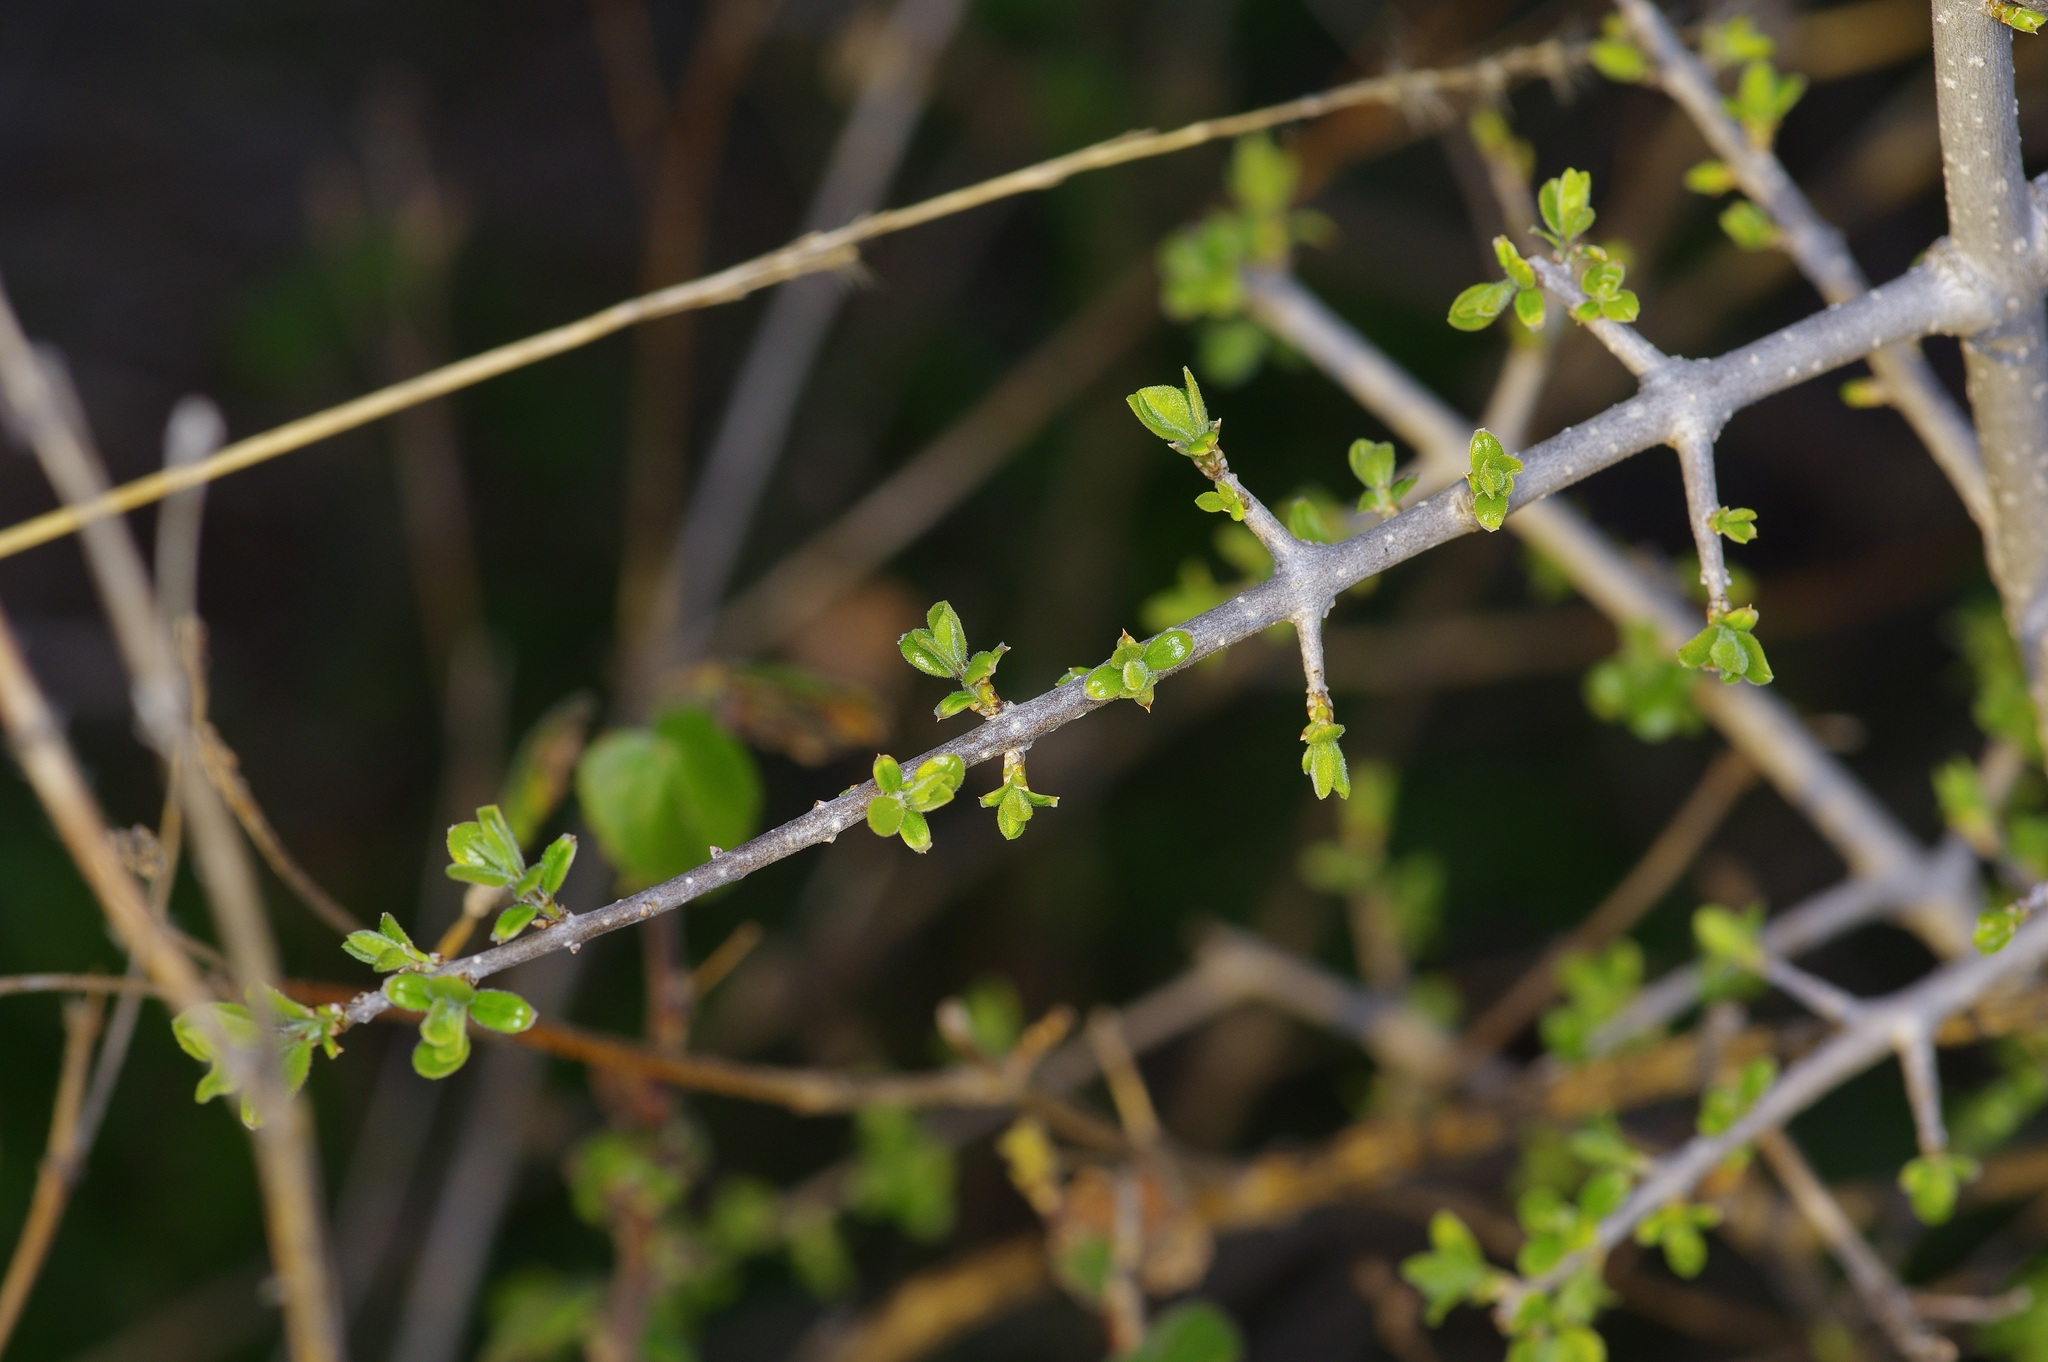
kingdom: Plantae
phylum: Tracheophyta
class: Magnoliopsida
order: Lamiales
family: Oleaceae
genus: Forestiera
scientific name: Forestiera pubescens
